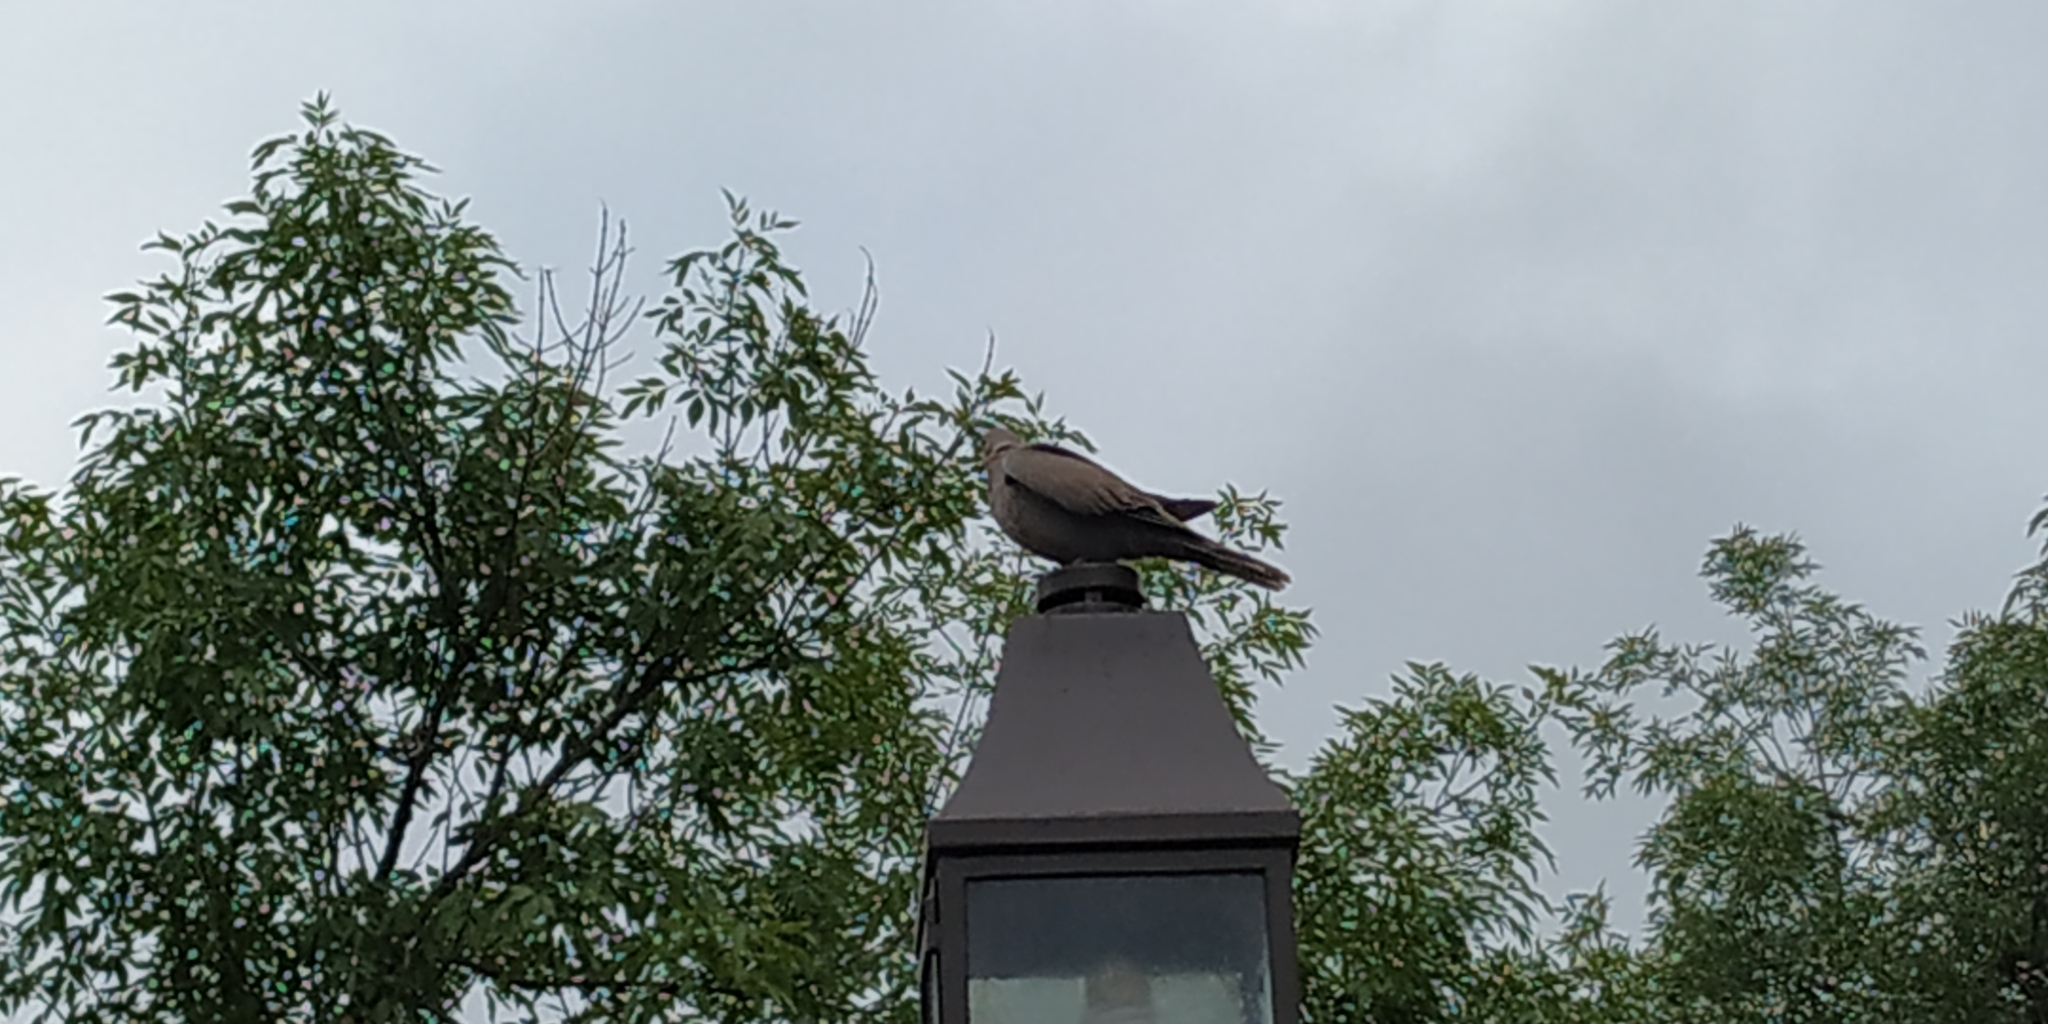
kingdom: Animalia
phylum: Chordata
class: Aves
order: Columbiformes
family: Columbidae
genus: Streptopelia
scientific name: Streptopelia decaocto
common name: Eurasian collared dove
